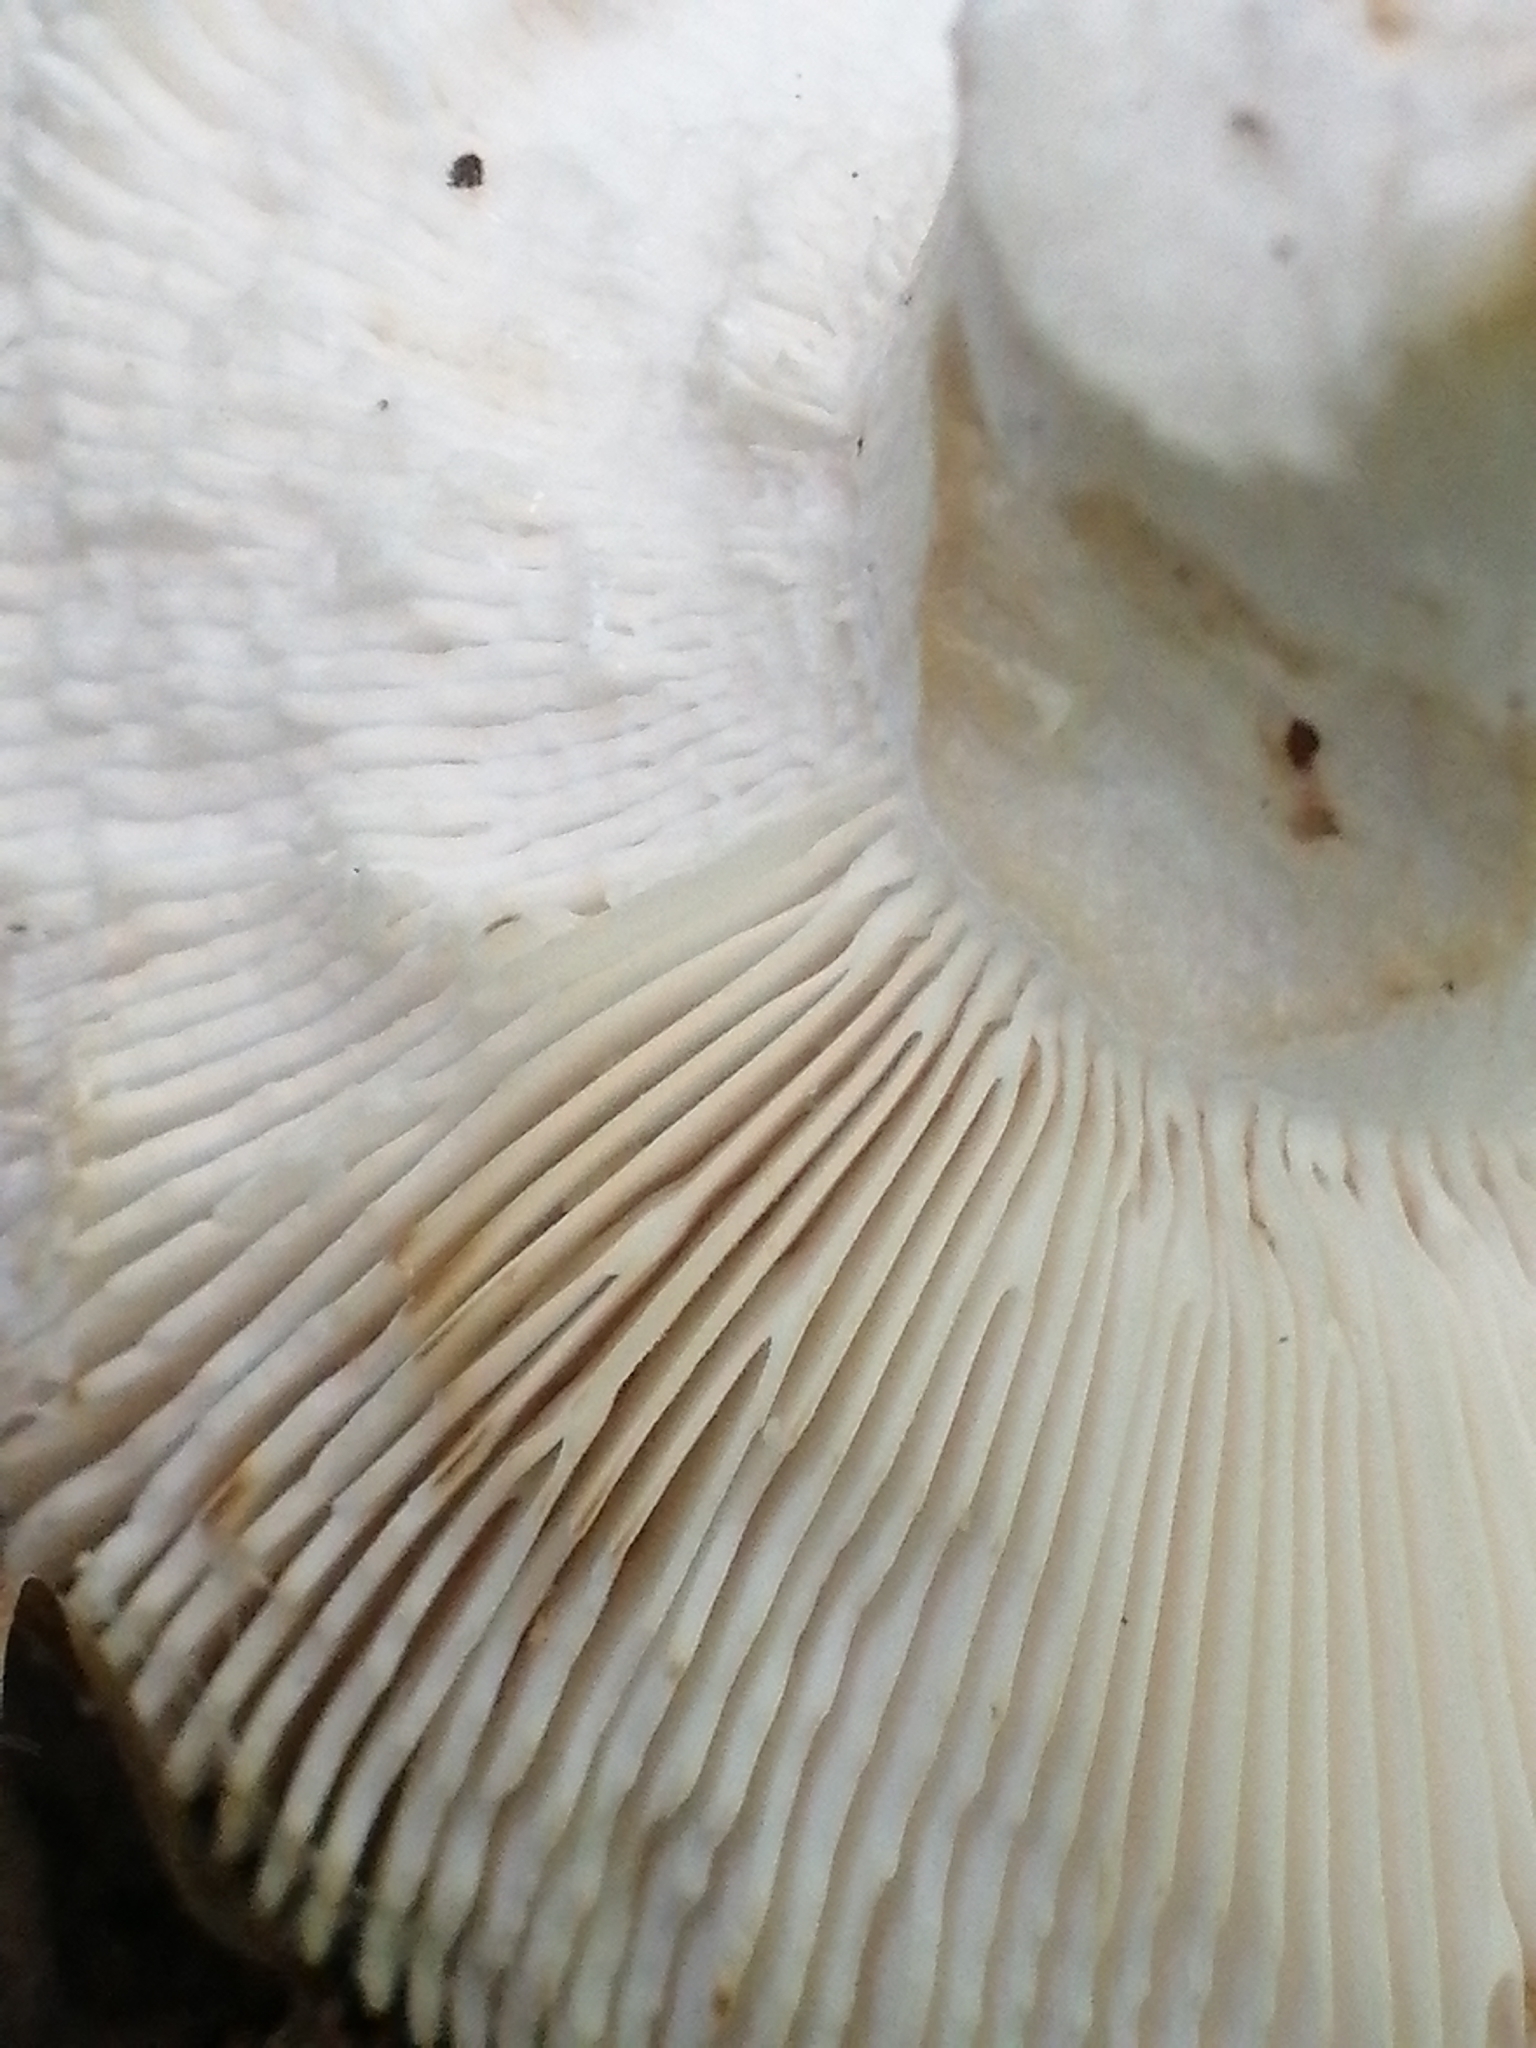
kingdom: Fungi
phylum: Basidiomycota
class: Agaricomycetes
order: Russulales
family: Russulaceae
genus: Russula
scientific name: Russula heterophylla
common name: Greasy green brittlegill
